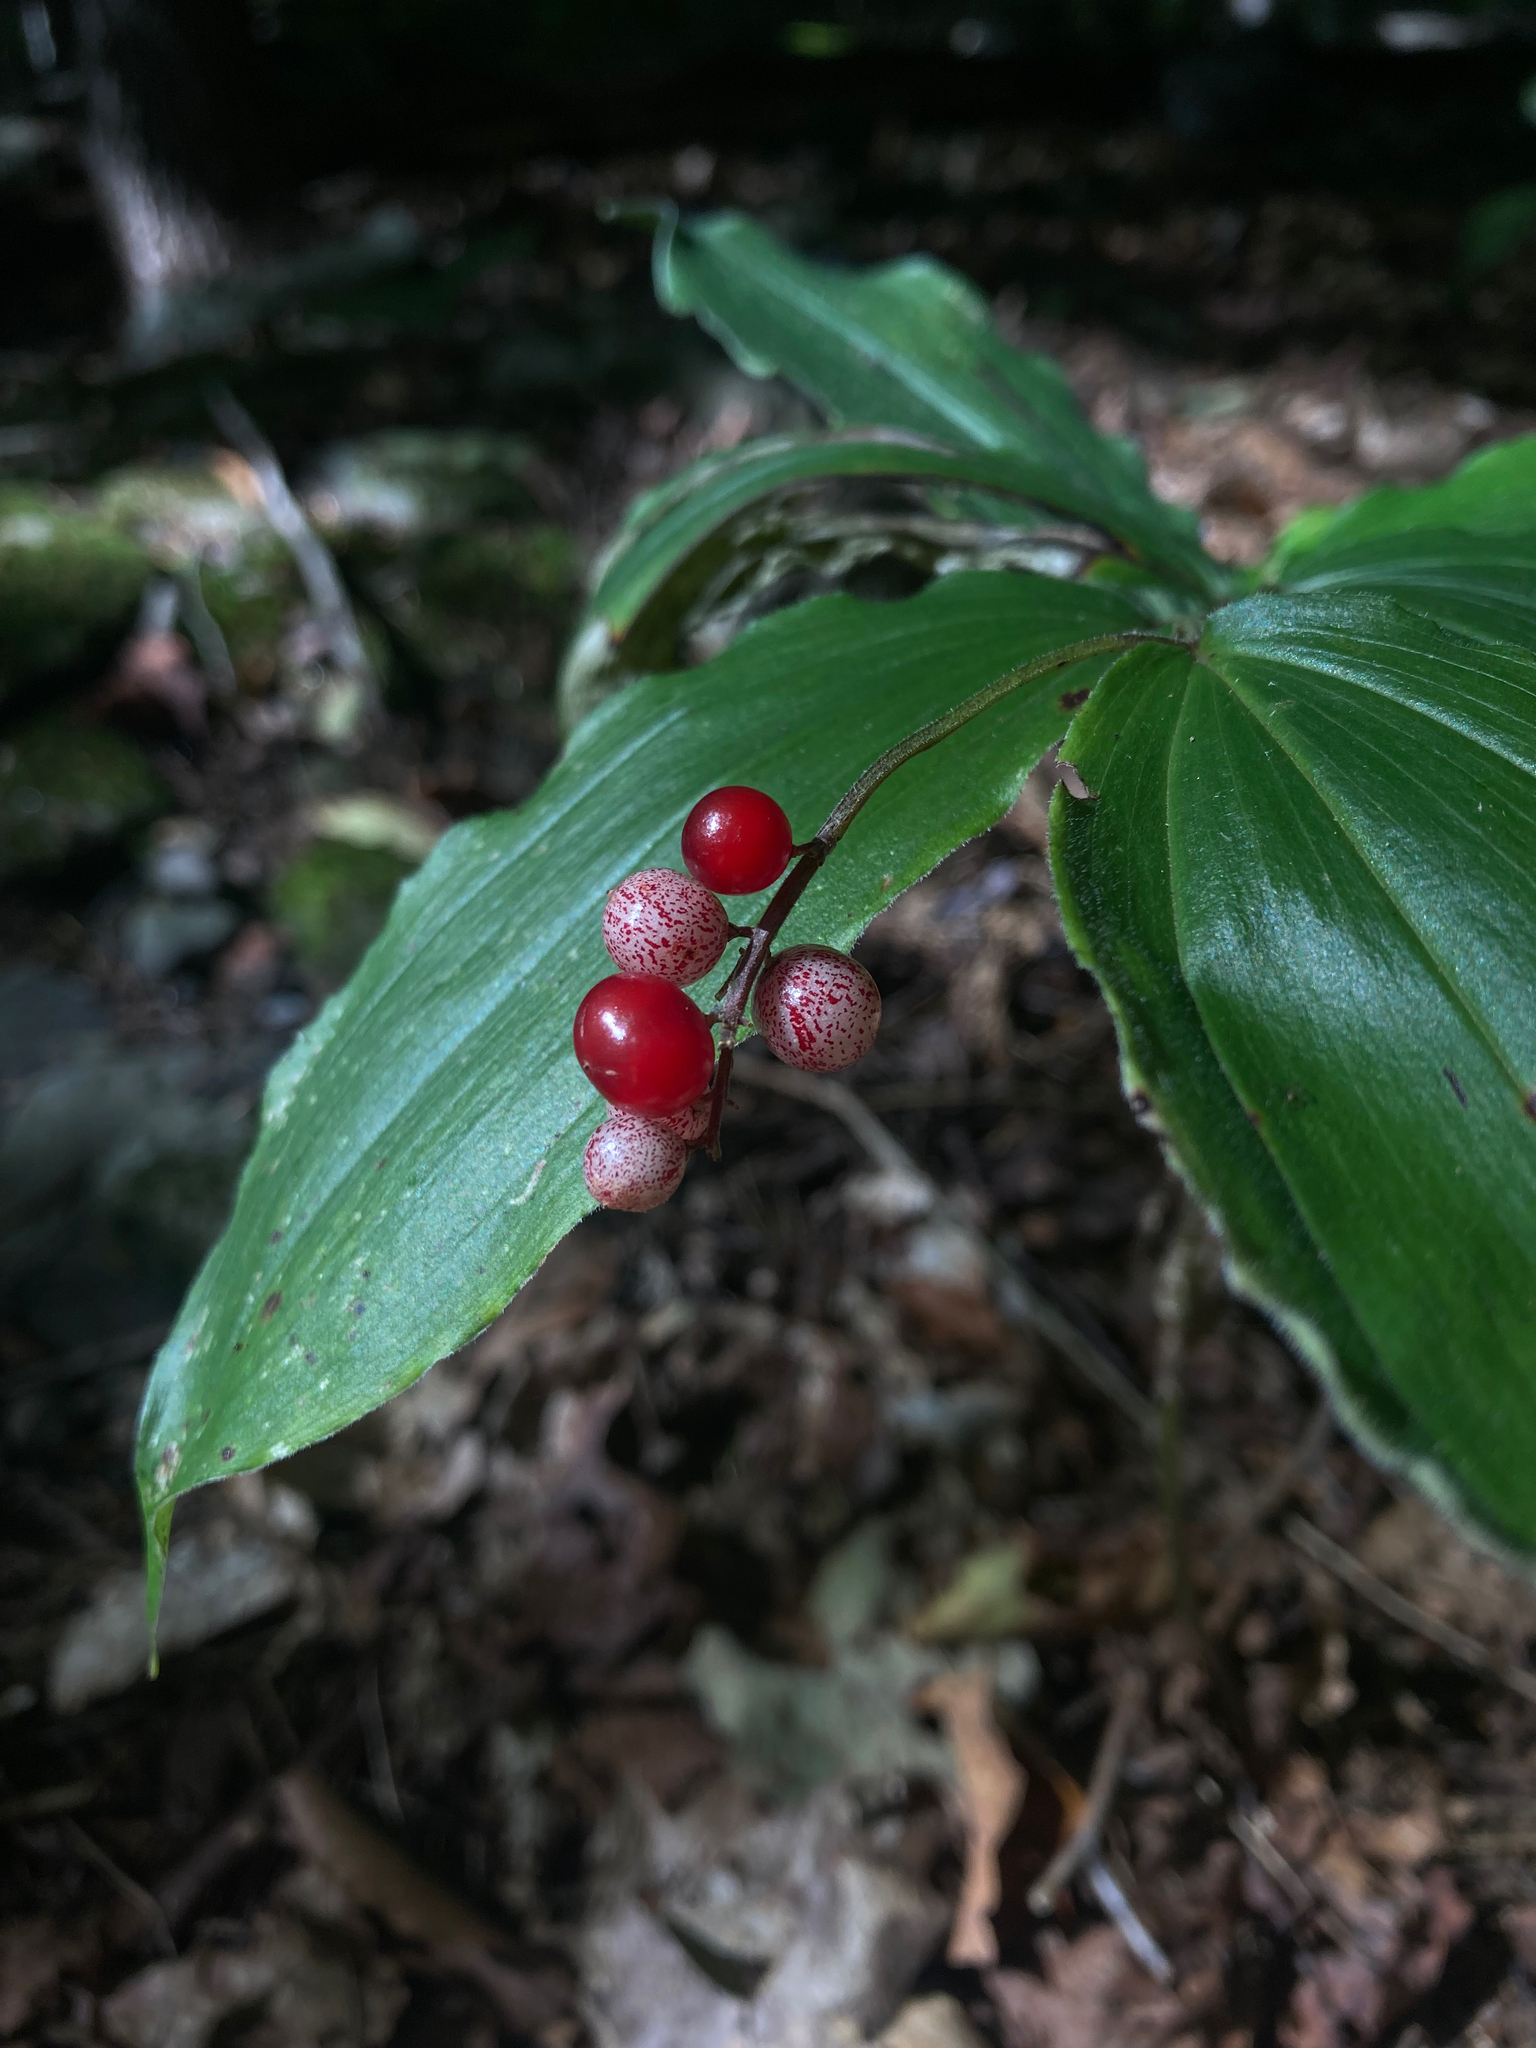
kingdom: Plantae
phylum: Tracheophyta
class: Liliopsida
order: Asparagales
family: Asparagaceae
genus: Maianthemum
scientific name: Maianthemum racemosum
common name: False spikenard
